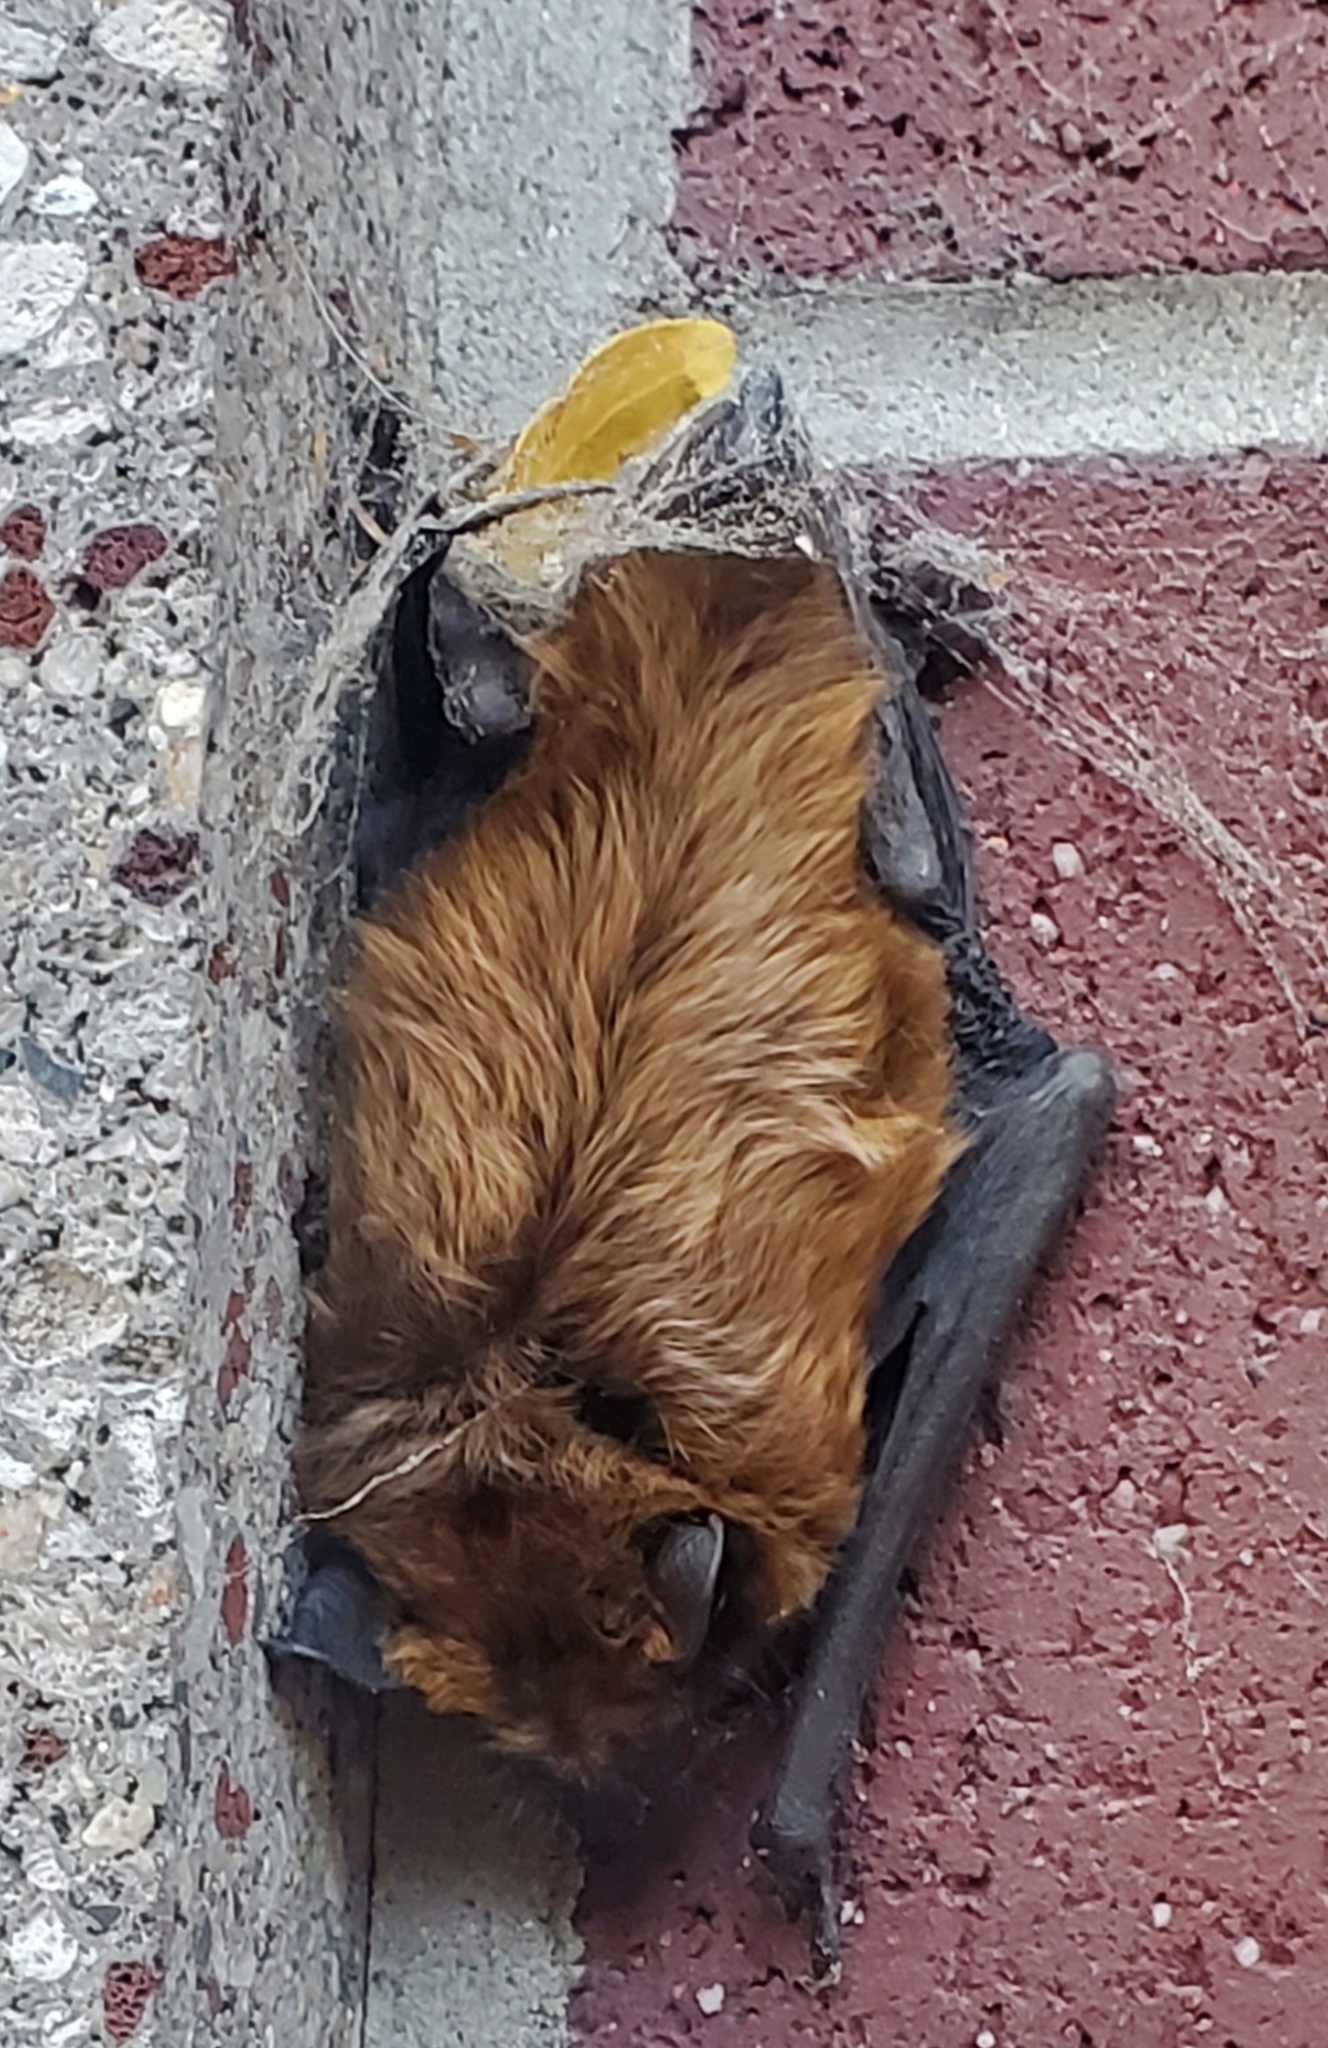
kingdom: Animalia
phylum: Chordata
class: Mammalia
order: Chiroptera
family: Vespertilionidae
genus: Eptesicus
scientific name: Eptesicus fuscus
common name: Big brown bat
